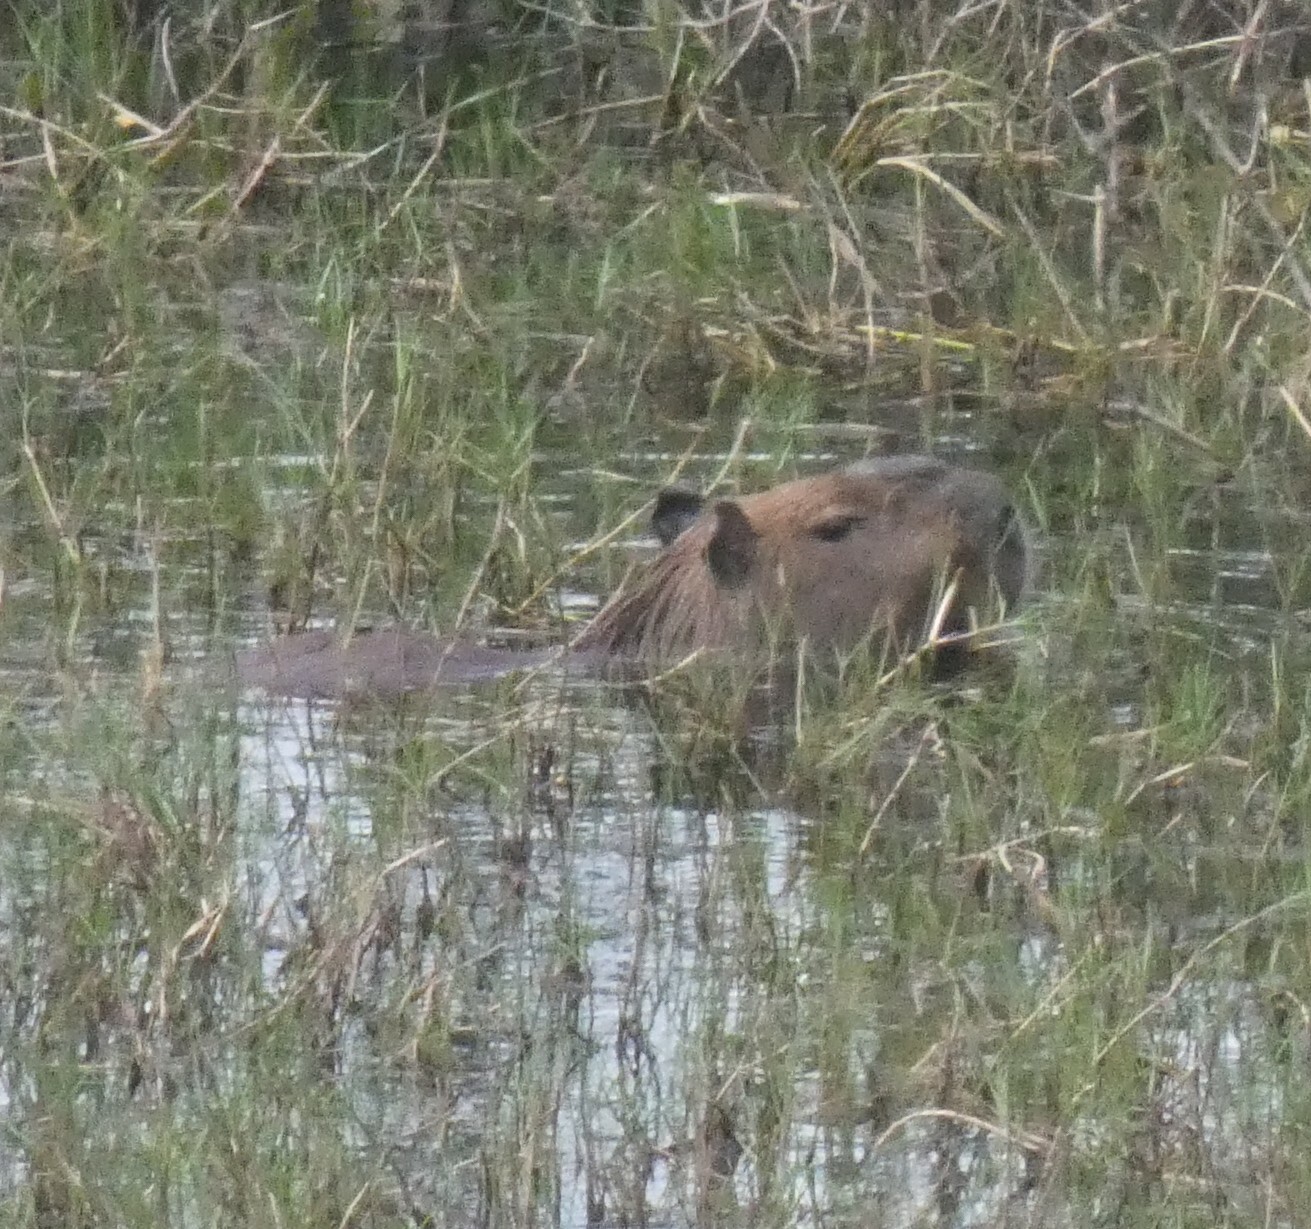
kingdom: Animalia
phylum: Chordata
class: Mammalia
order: Rodentia
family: Caviidae
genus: Hydrochoerus
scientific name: Hydrochoerus hydrochaeris
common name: Capybara
